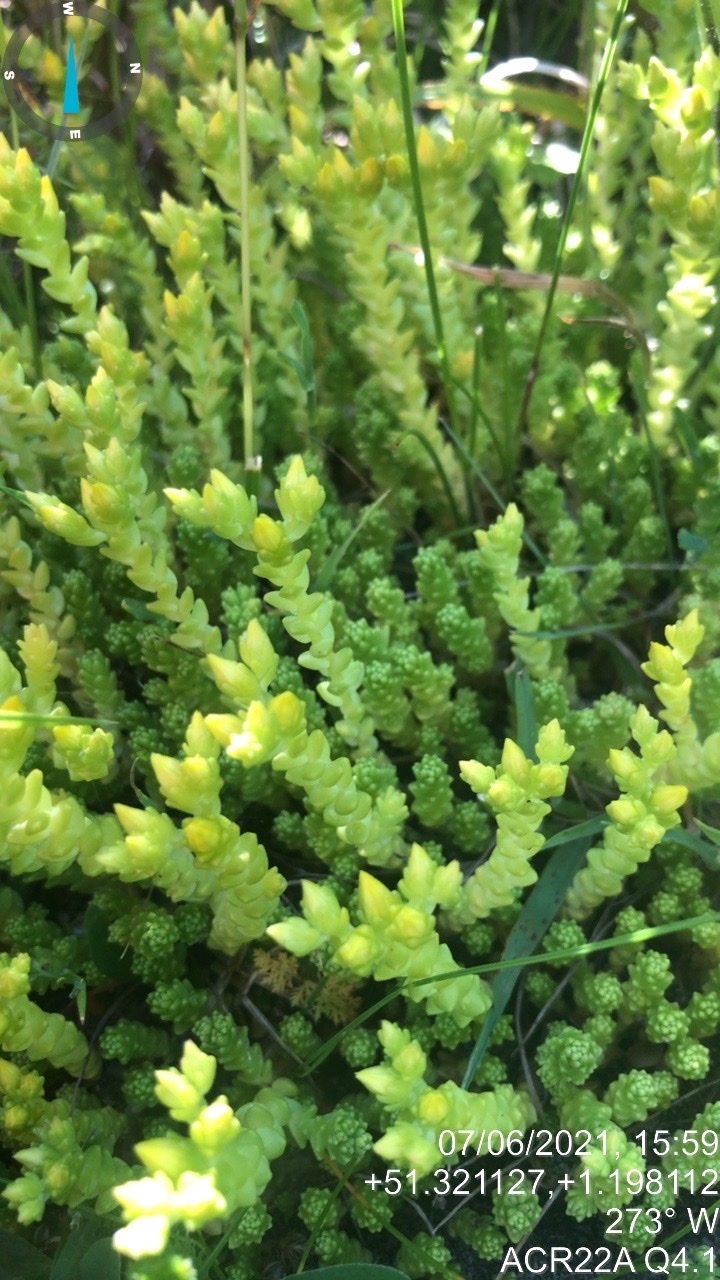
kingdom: Plantae
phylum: Tracheophyta
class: Magnoliopsida
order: Saxifragales
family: Crassulaceae
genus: Sedum
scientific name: Sedum acre
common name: Biting stonecrop
